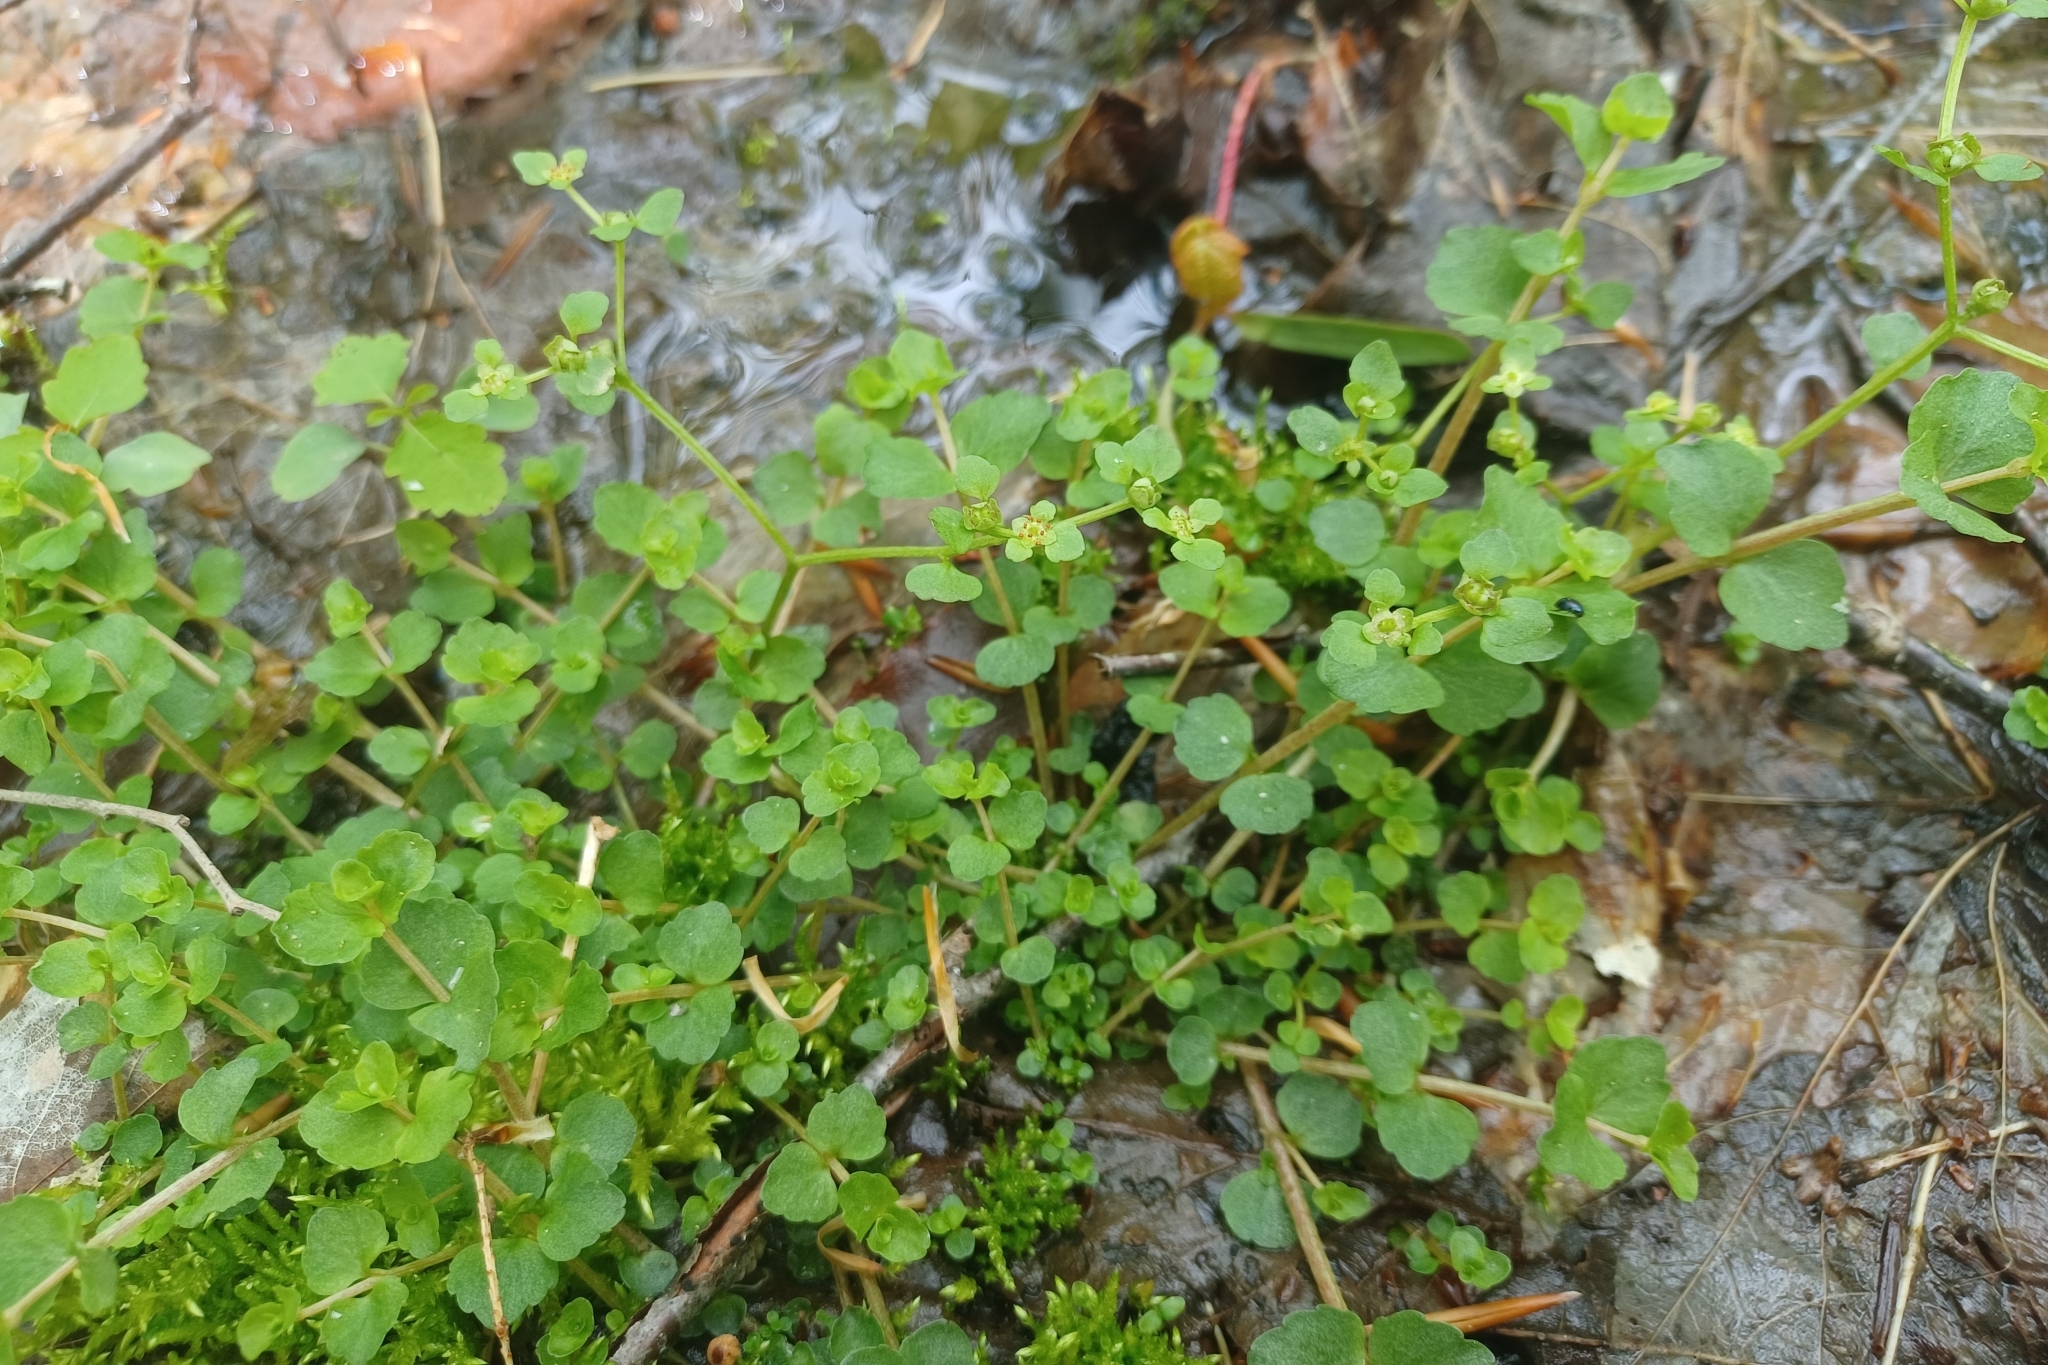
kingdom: Plantae
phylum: Tracheophyta
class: Magnoliopsida
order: Saxifragales
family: Saxifragaceae
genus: Chrysosplenium
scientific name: Chrysosplenium americanum
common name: American golden-saxifrage
